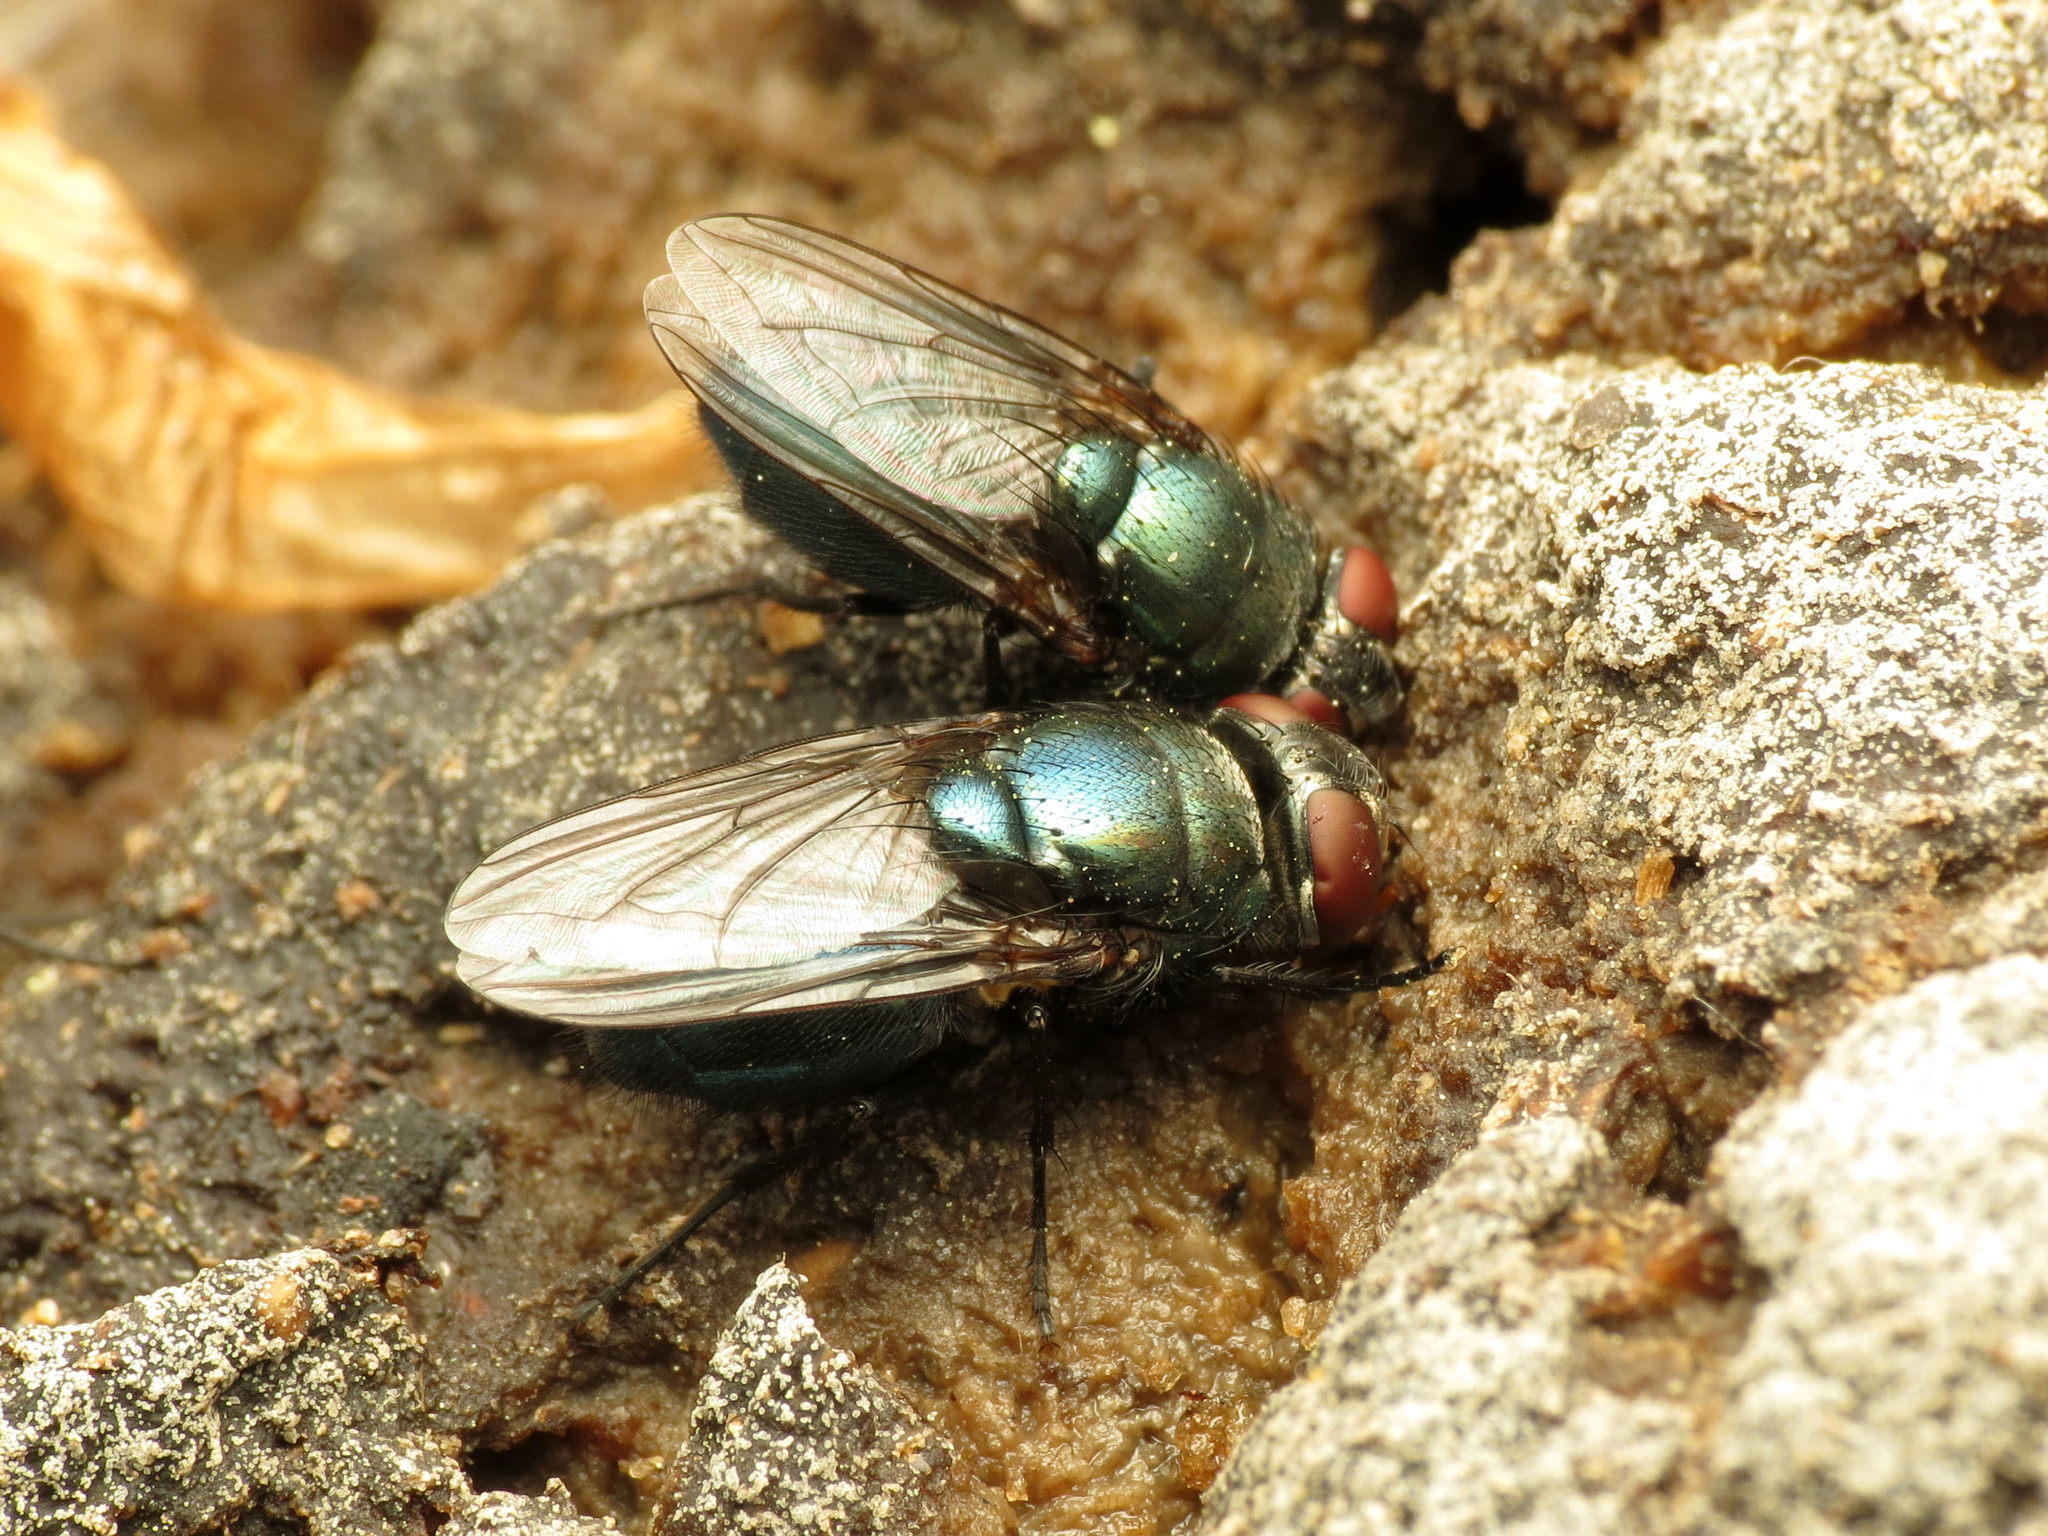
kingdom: Animalia
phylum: Arthropoda
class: Insecta
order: Diptera
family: Calliphoridae
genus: Phormia
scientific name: Phormia regina
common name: Black blow fly
